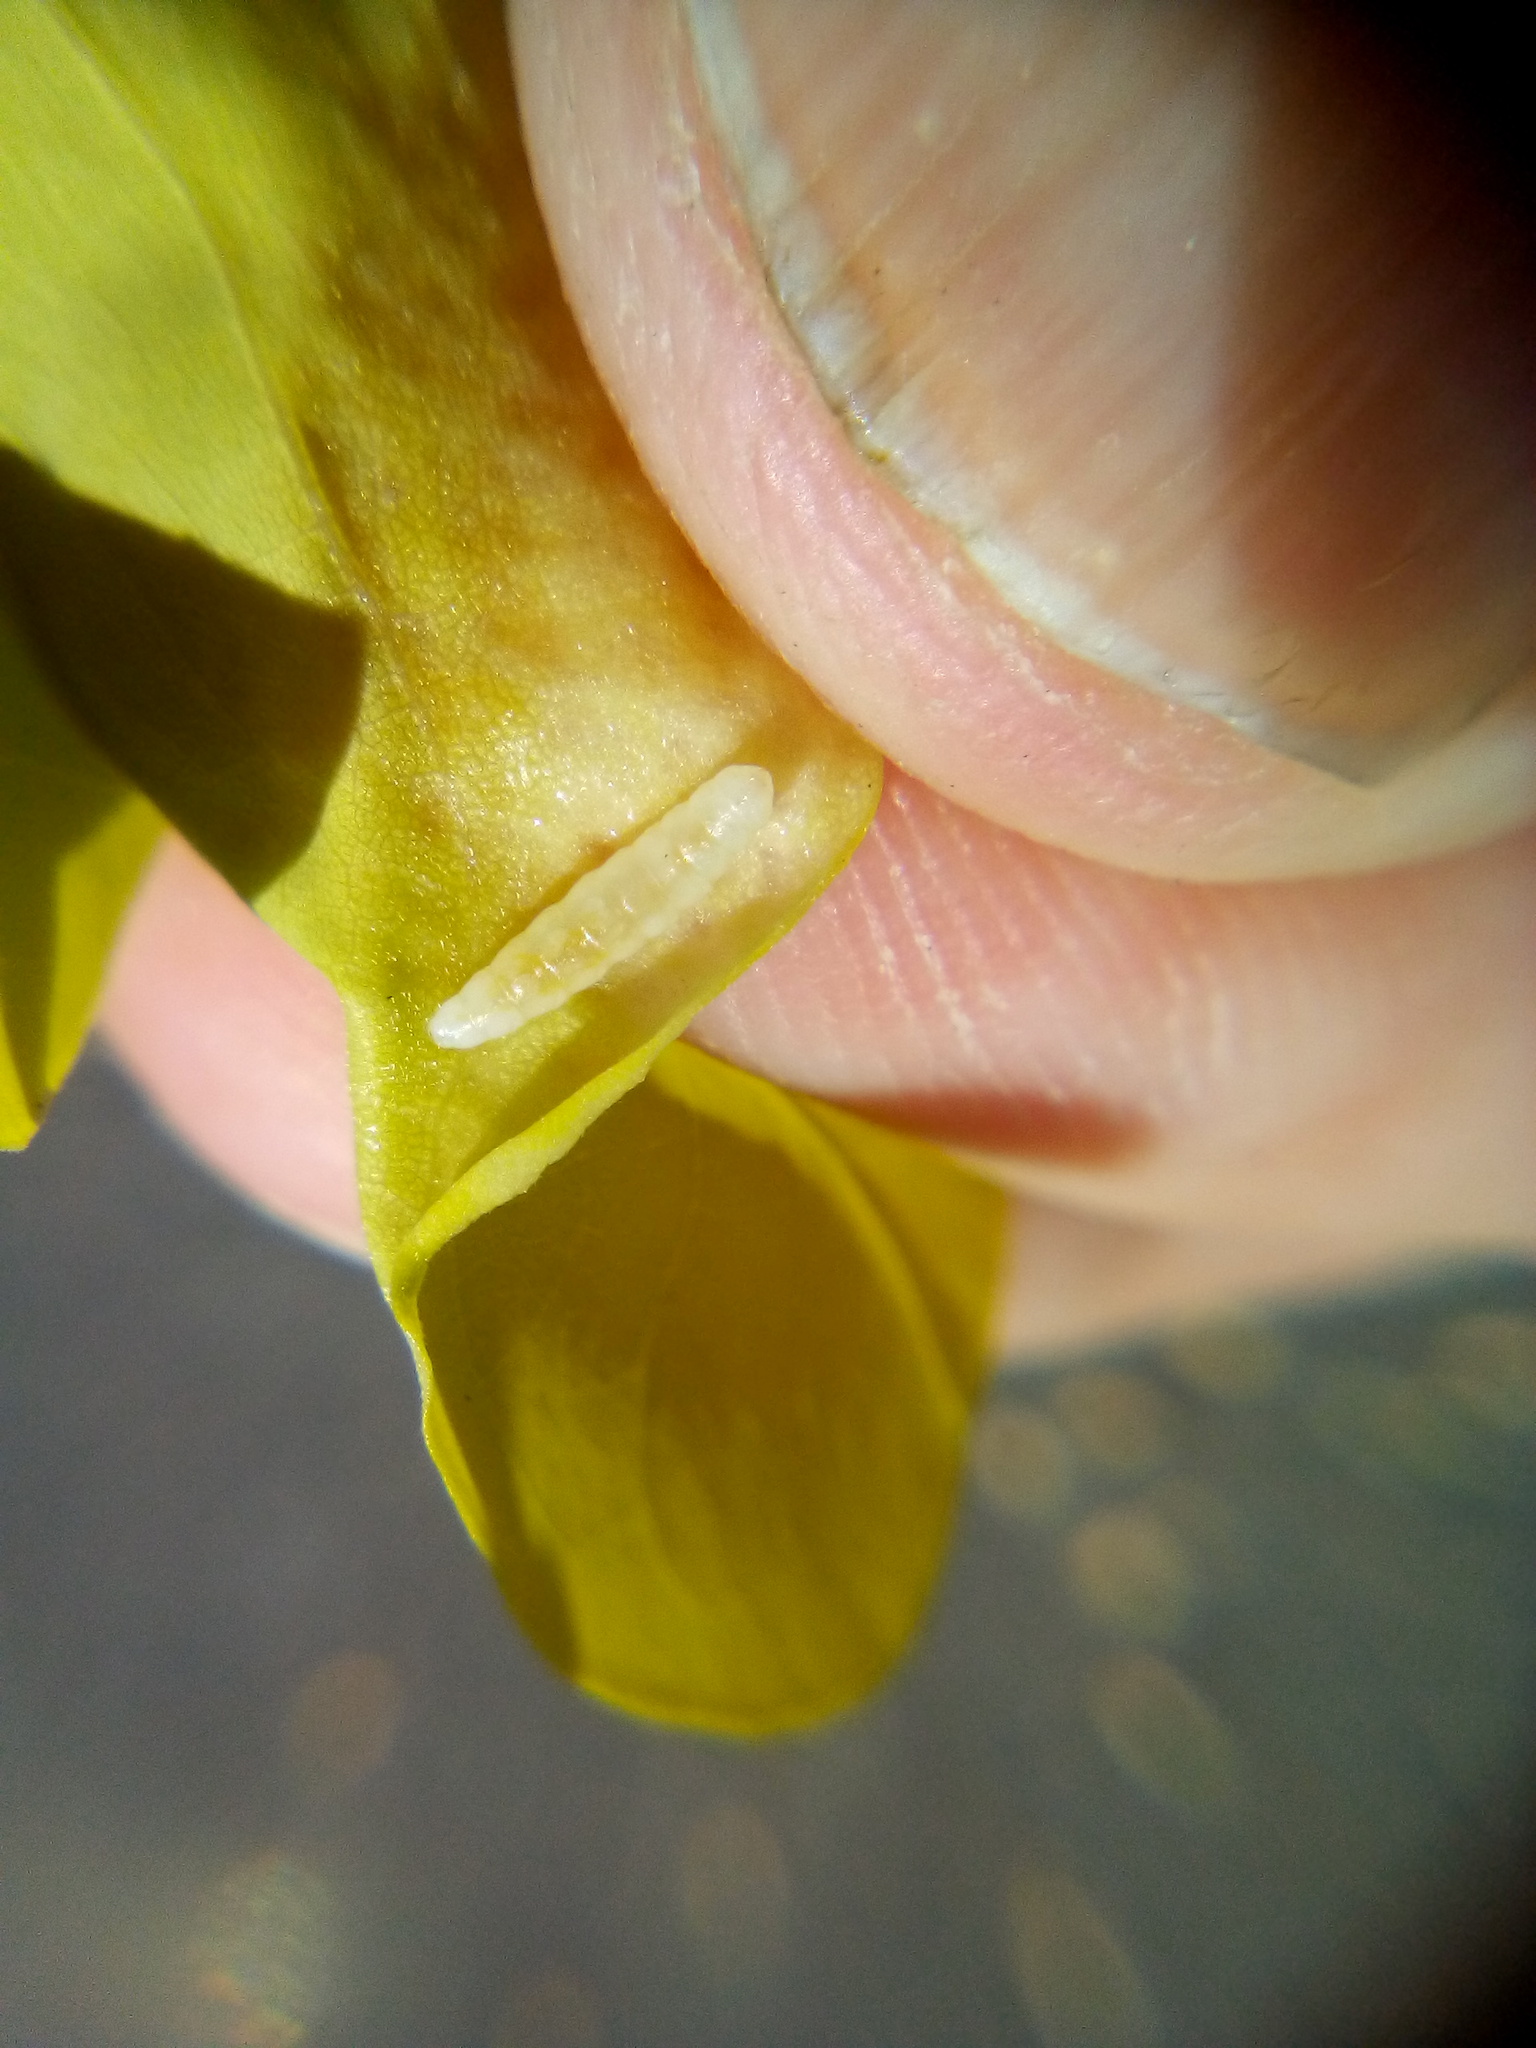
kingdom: Animalia
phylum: Arthropoda
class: Insecta
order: Diptera
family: Cecidomyiidae
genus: Obolodiplosis
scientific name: Obolodiplosis robiniae
